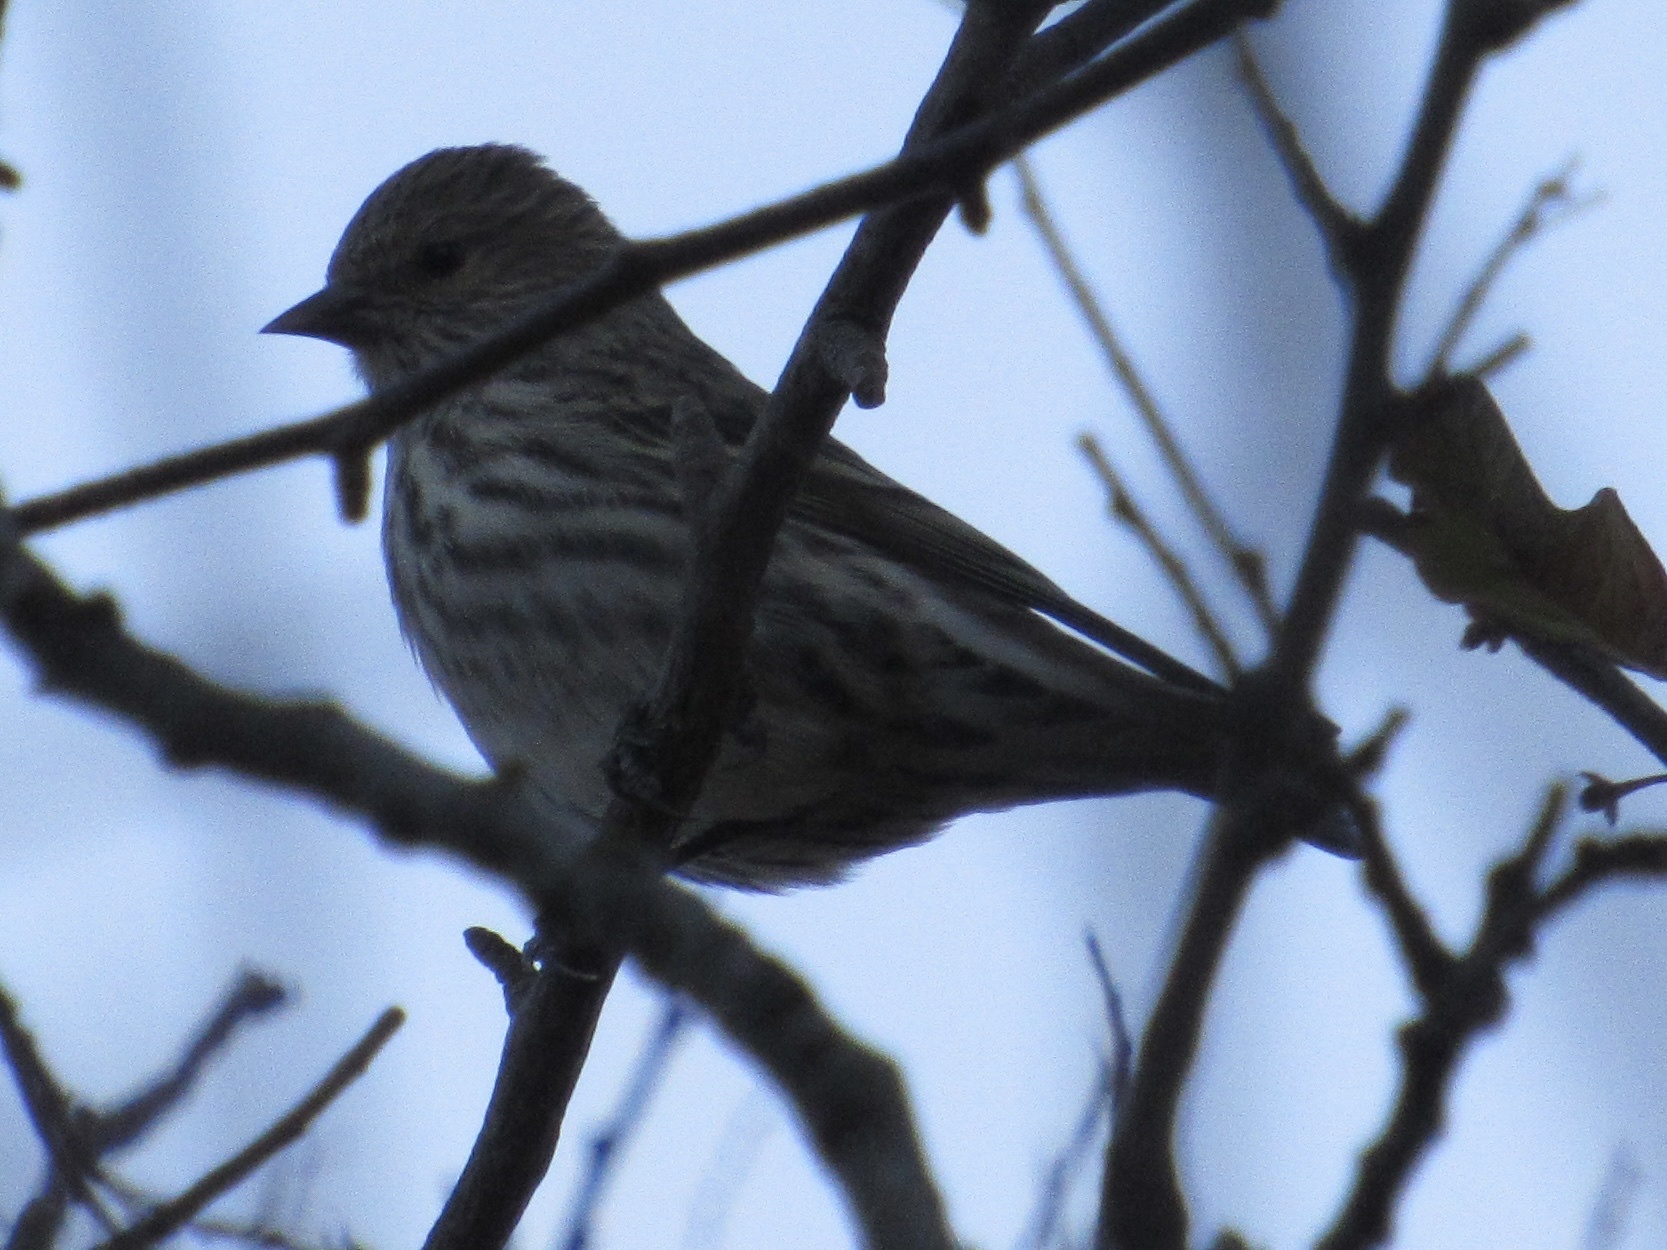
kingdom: Animalia
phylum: Chordata
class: Aves
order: Passeriformes
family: Fringillidae
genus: Spinus
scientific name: Spinus pinus
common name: Pine siskin
